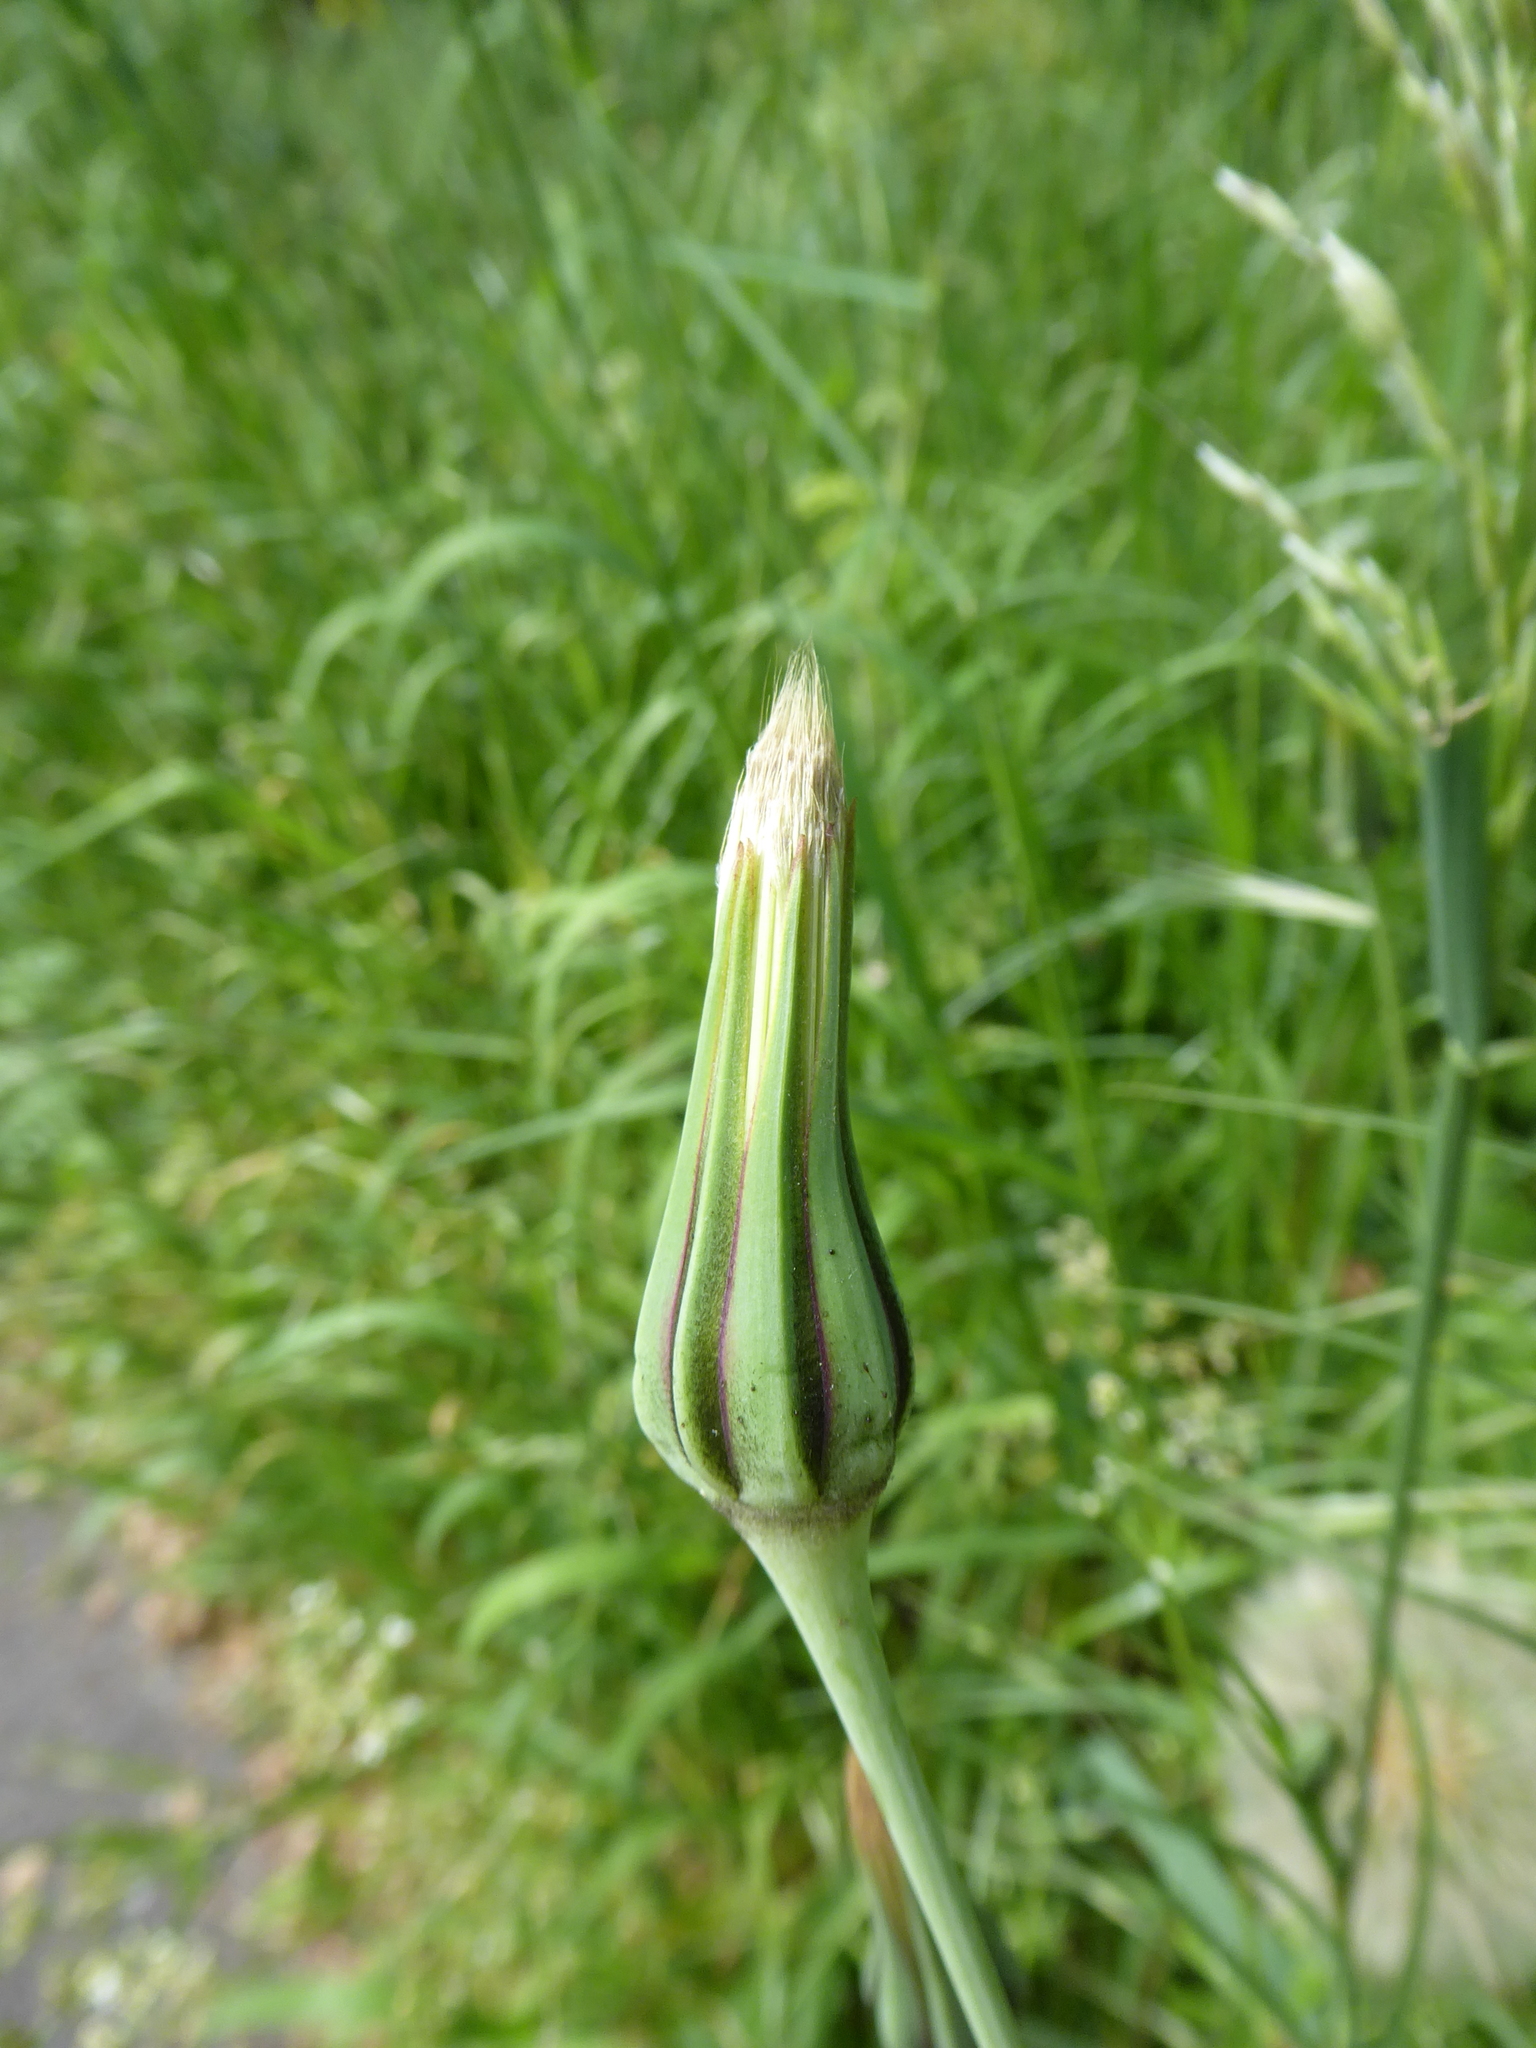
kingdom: Plantae
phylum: Tracheophyta
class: Magnoliopsida
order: Asterales
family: Asteraceae
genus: Tragopogon
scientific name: Tragopogon pratensis
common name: Goat's-beard
